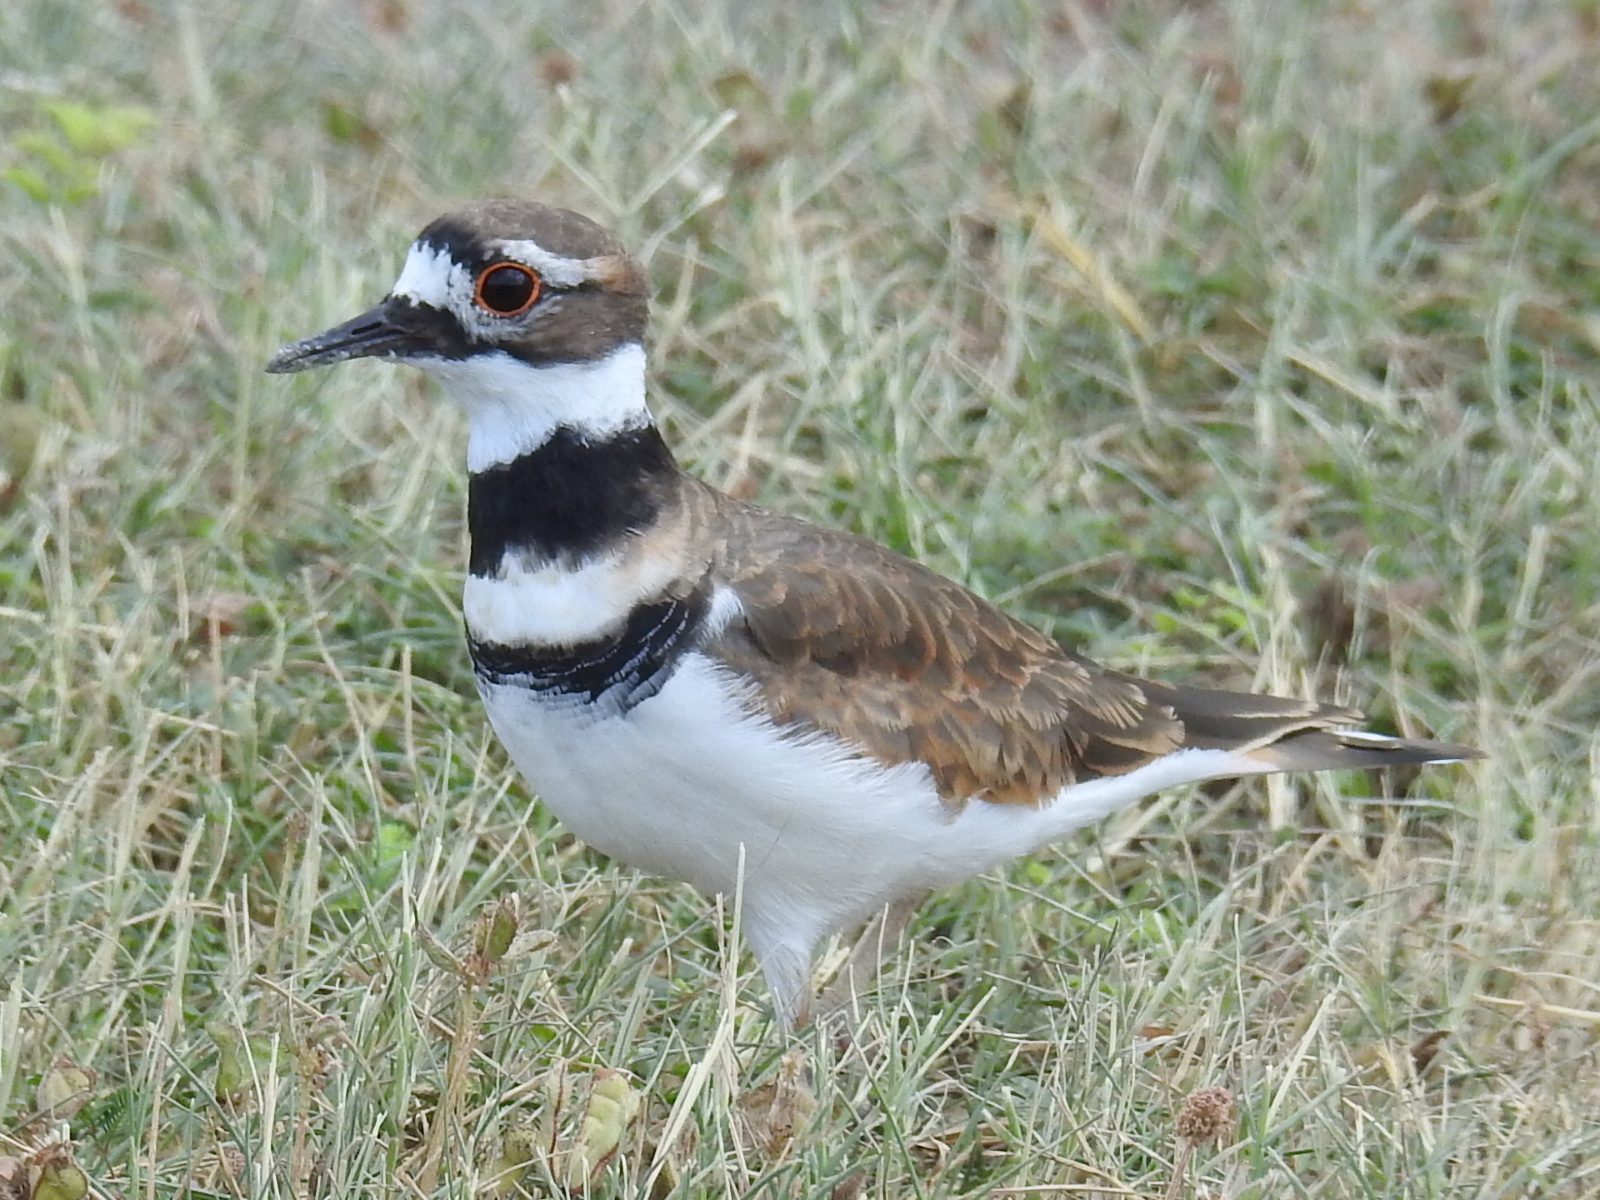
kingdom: Animalia
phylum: Chordata
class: Aves
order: Charadriiformes
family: Charadriidae
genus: Charadrius
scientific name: Charadrius vociferus
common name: Killdeer
